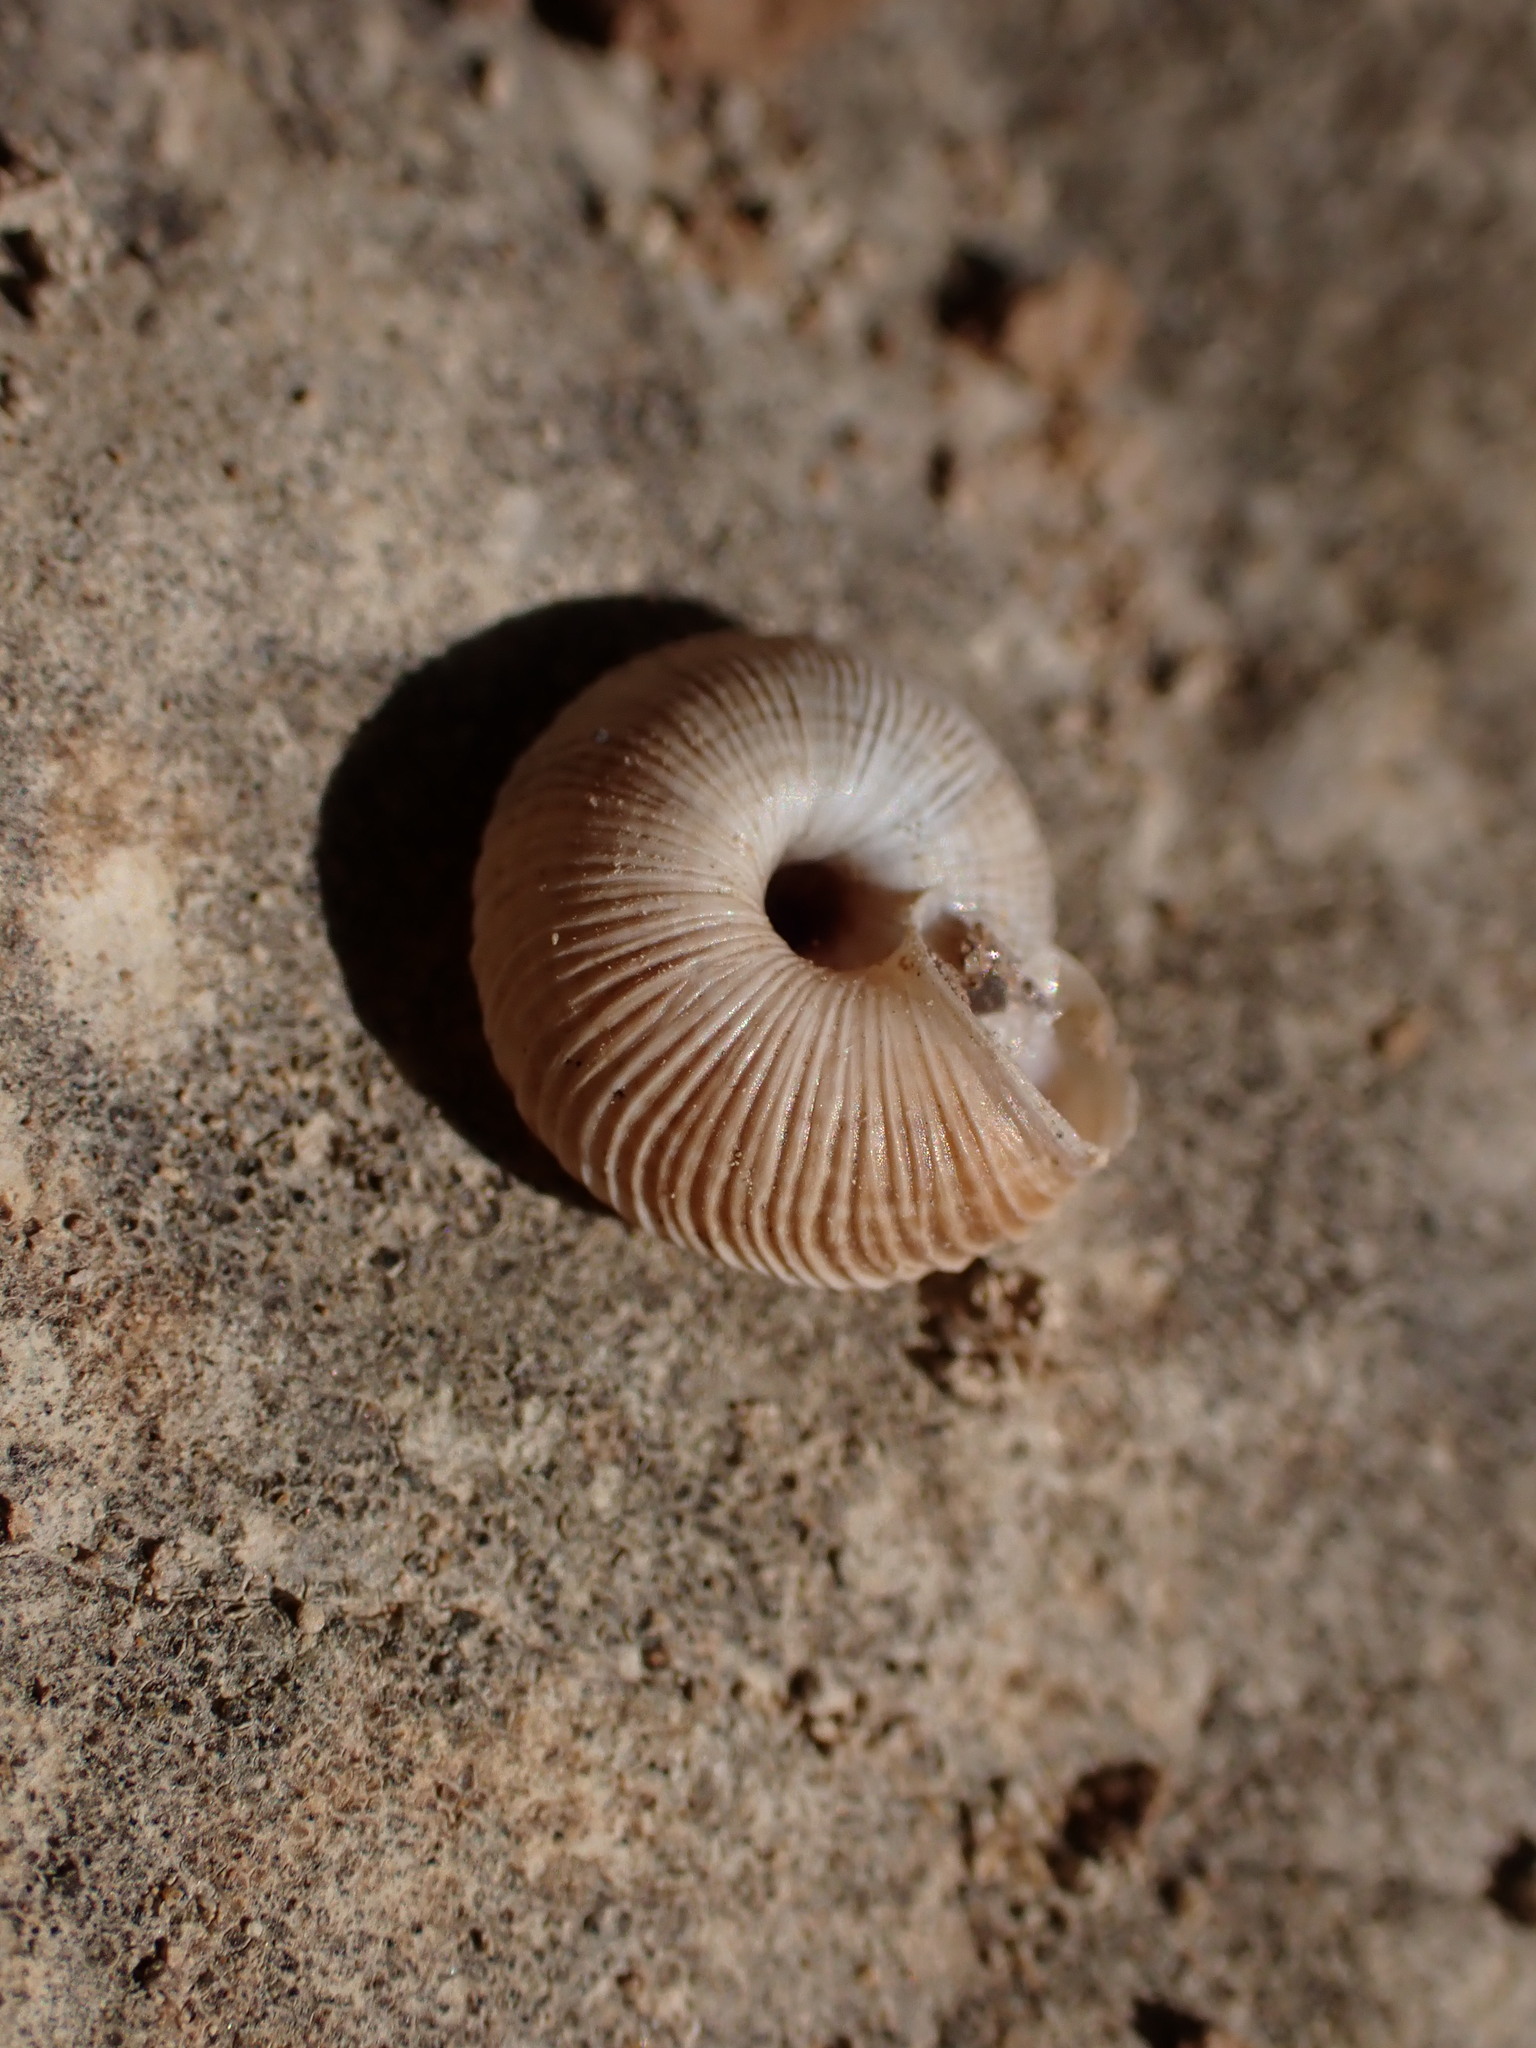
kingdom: Animalia
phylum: Mollusca
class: Gastropoda
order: Stylommatophora
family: Geomitridae
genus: Candidula
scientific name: Candidula rugosiuscula
